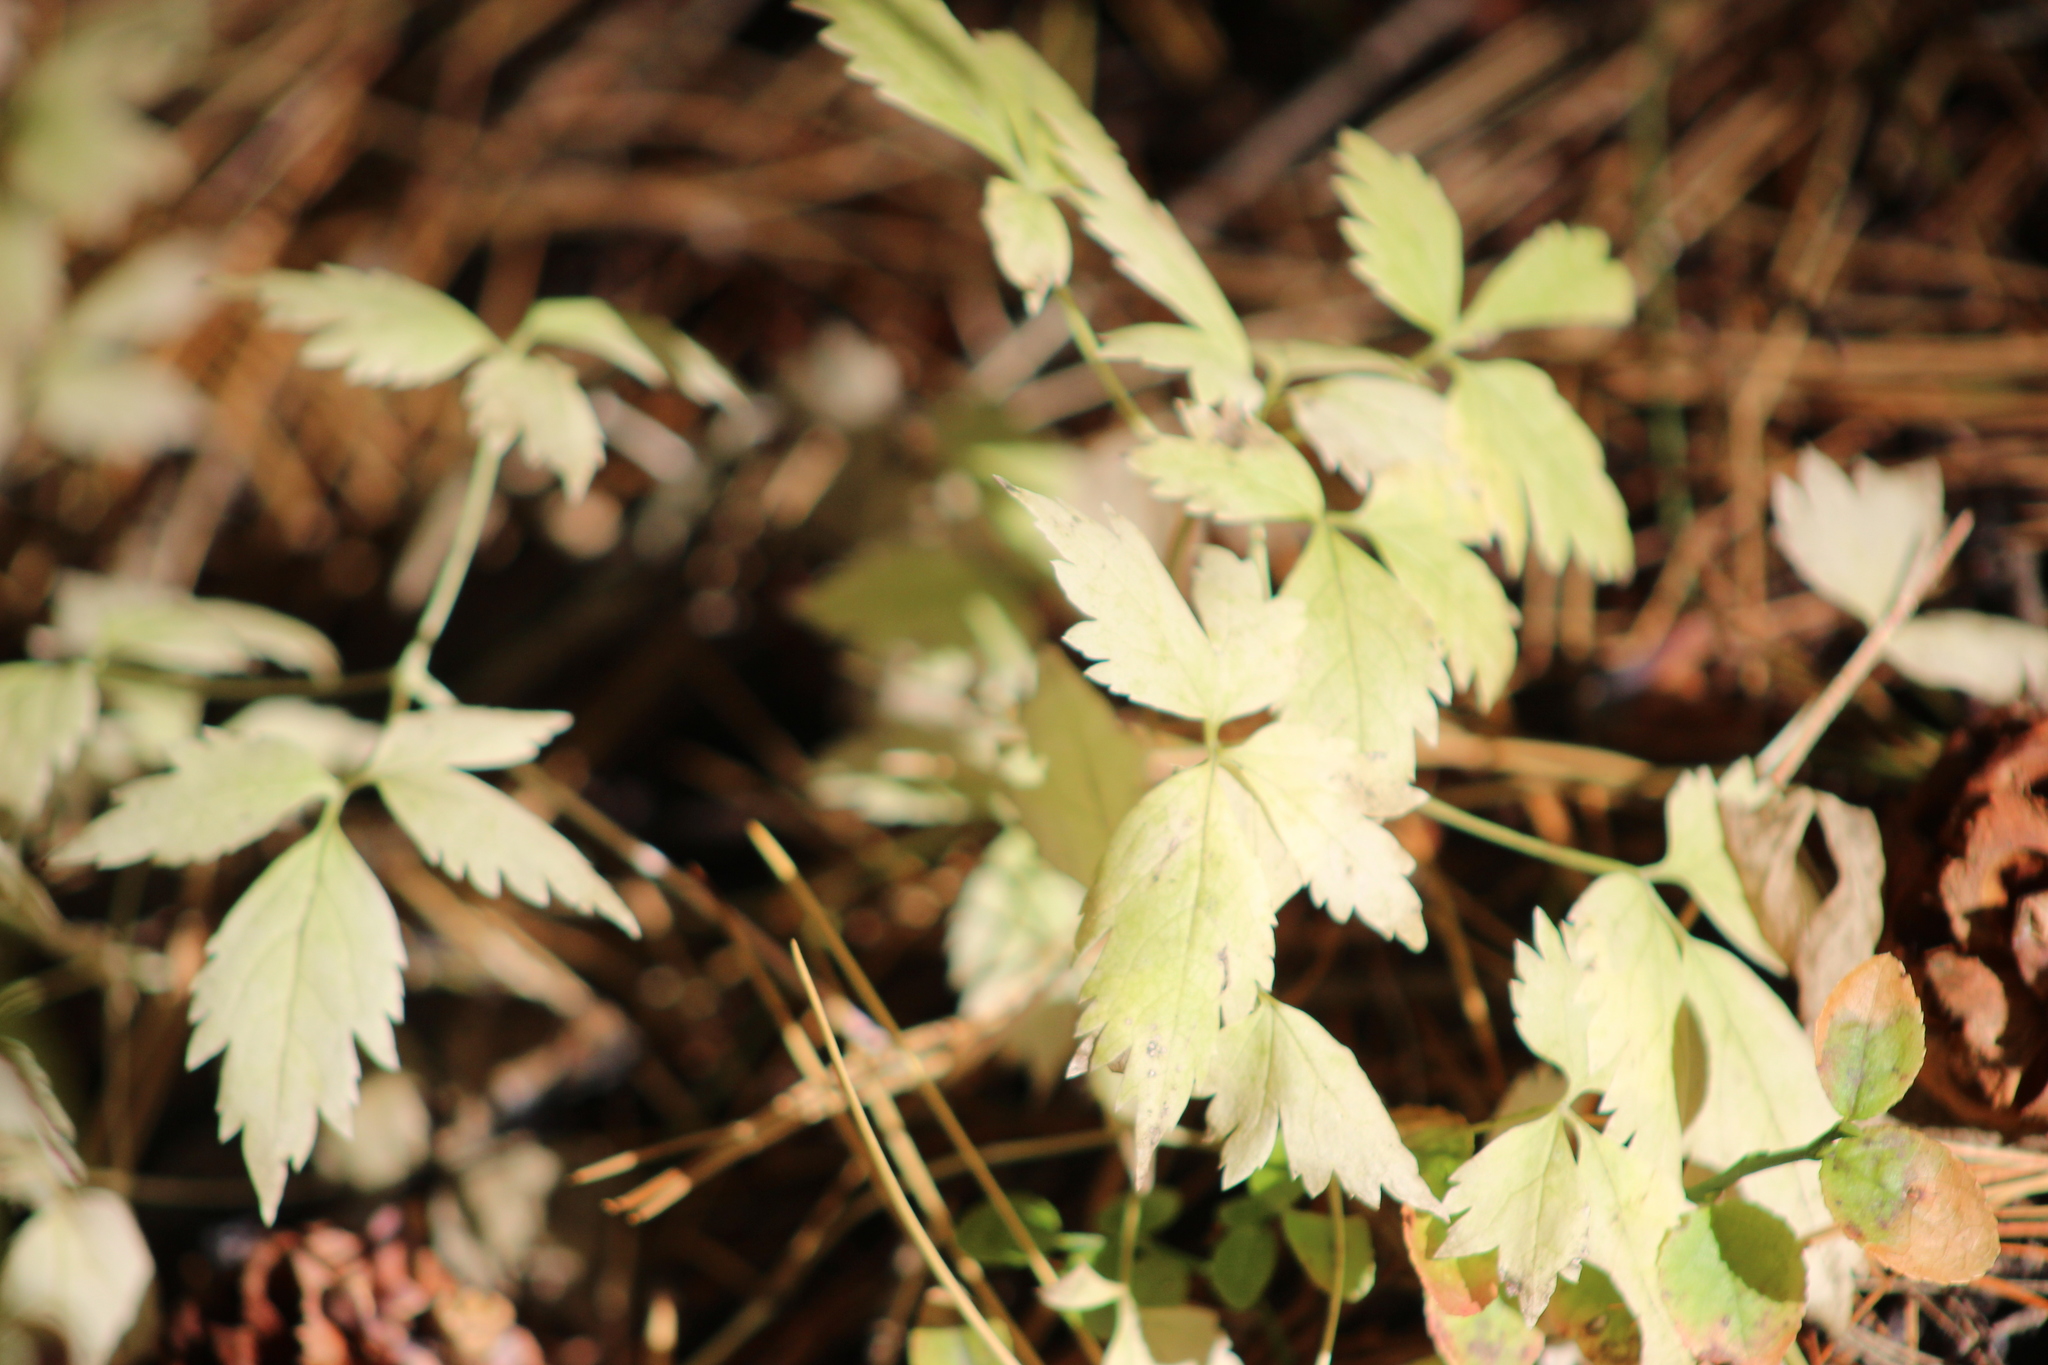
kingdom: Plantae
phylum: Tracheophyta
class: Magnoliopsida
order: Ranunculales
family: Ranunculaceae
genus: Clematis
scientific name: Clematis sibirica
